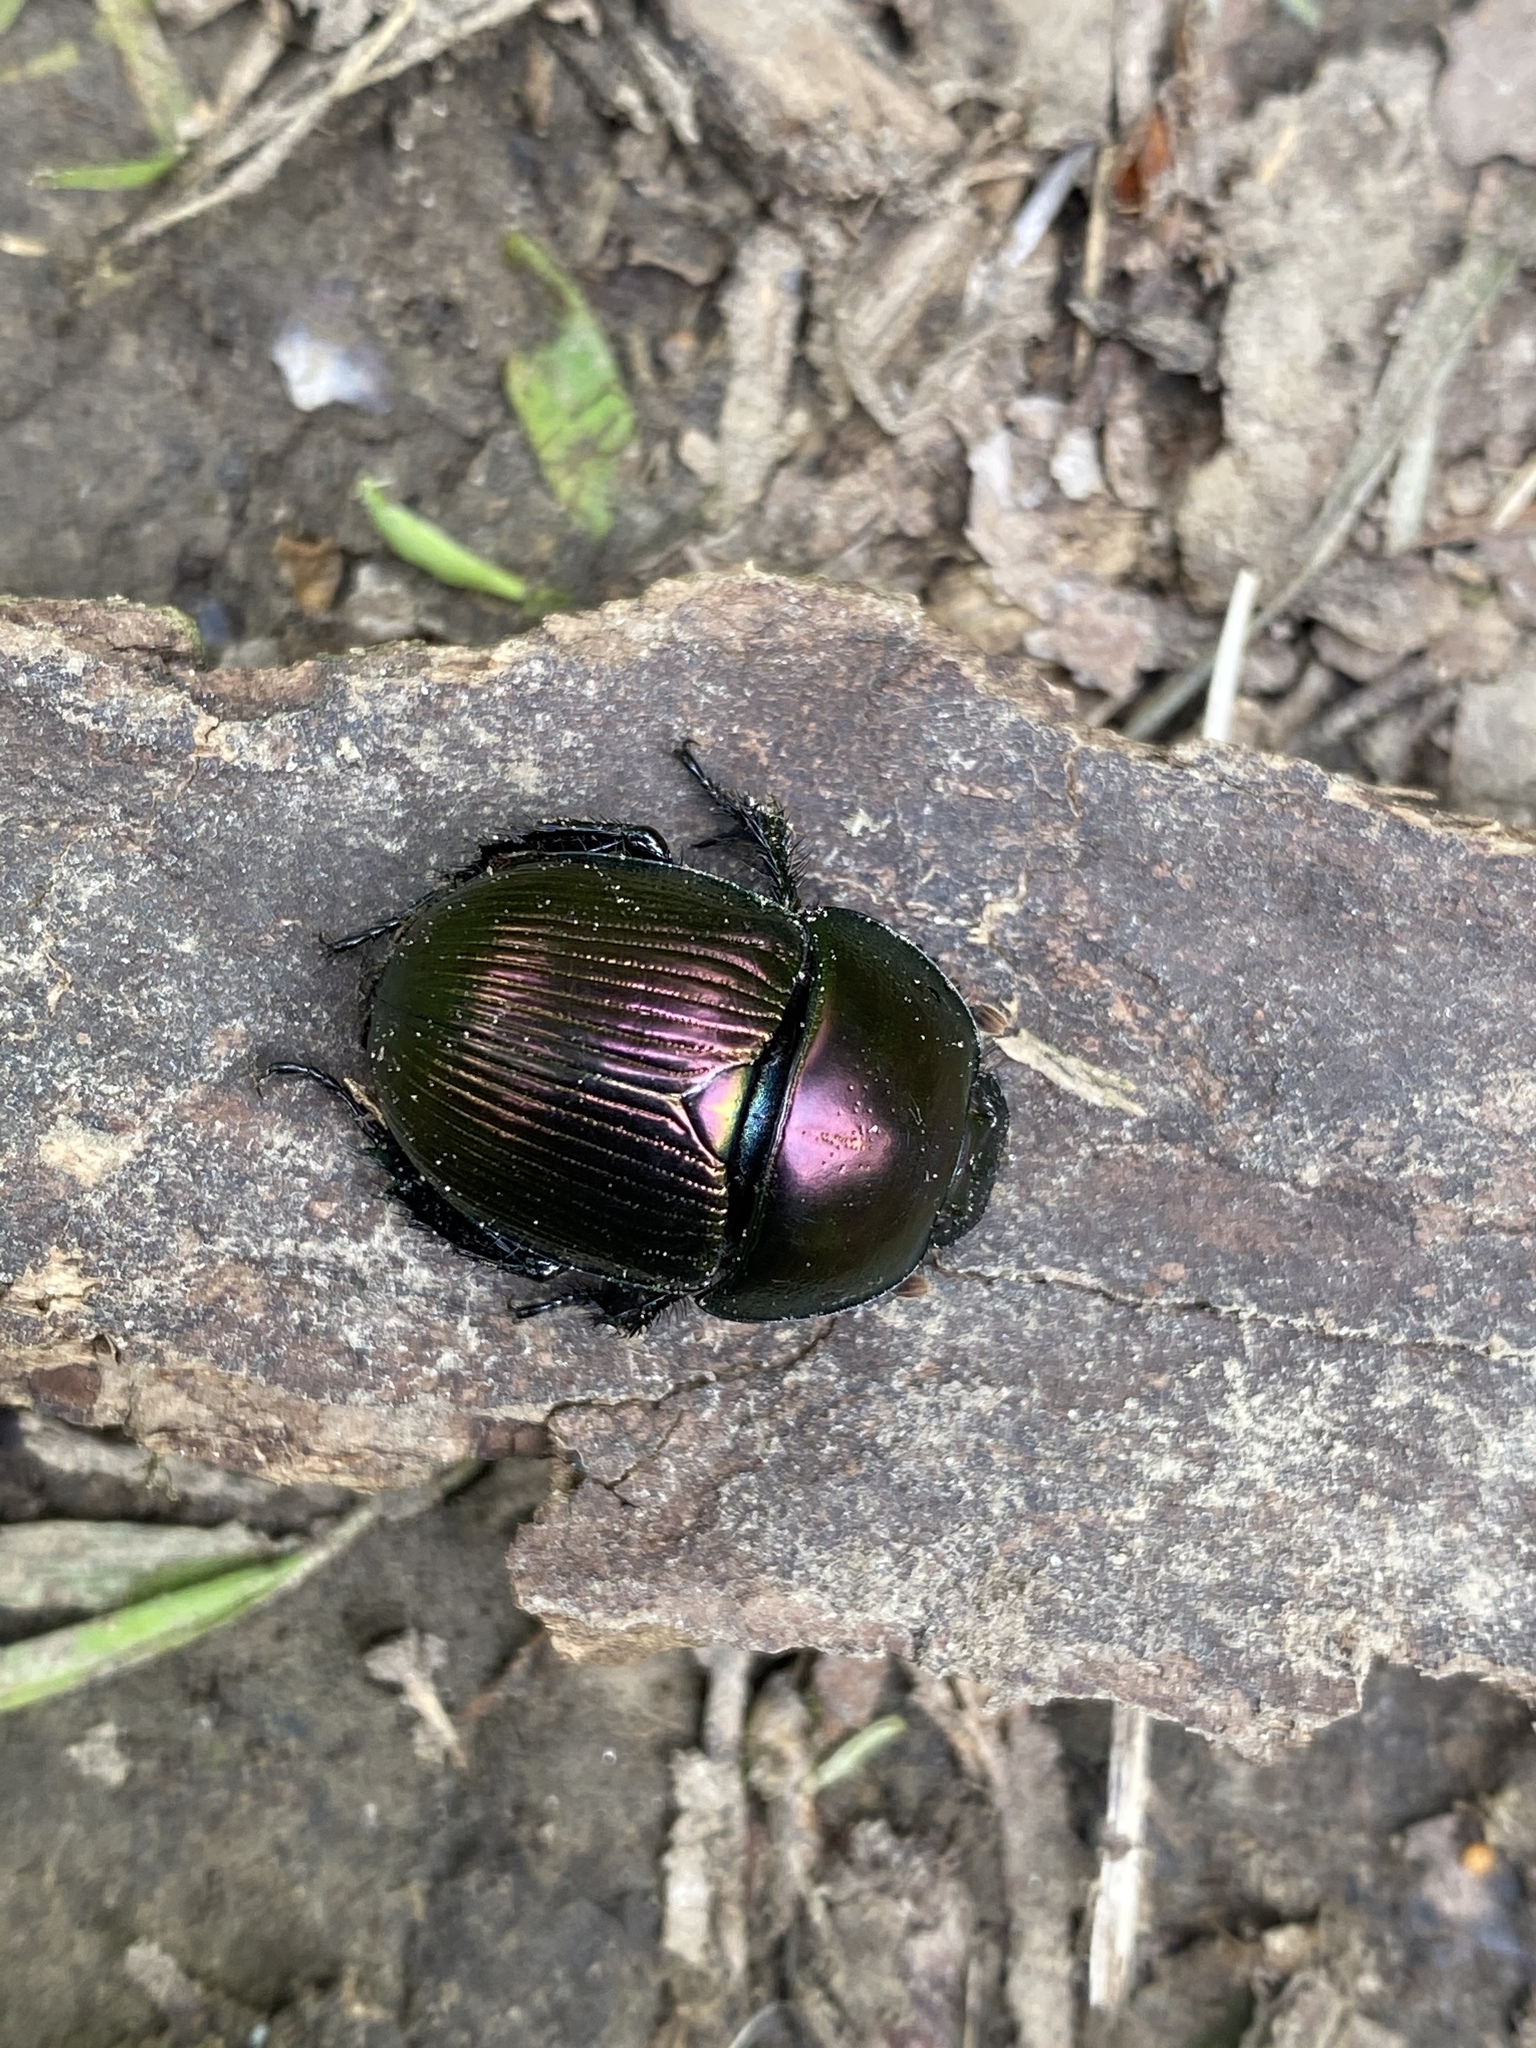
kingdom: Animalia
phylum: Arthropoda
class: Insecta
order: Coleoptera
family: Geotrupidae
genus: Geotrupes
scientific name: Geotrupes splendidus
